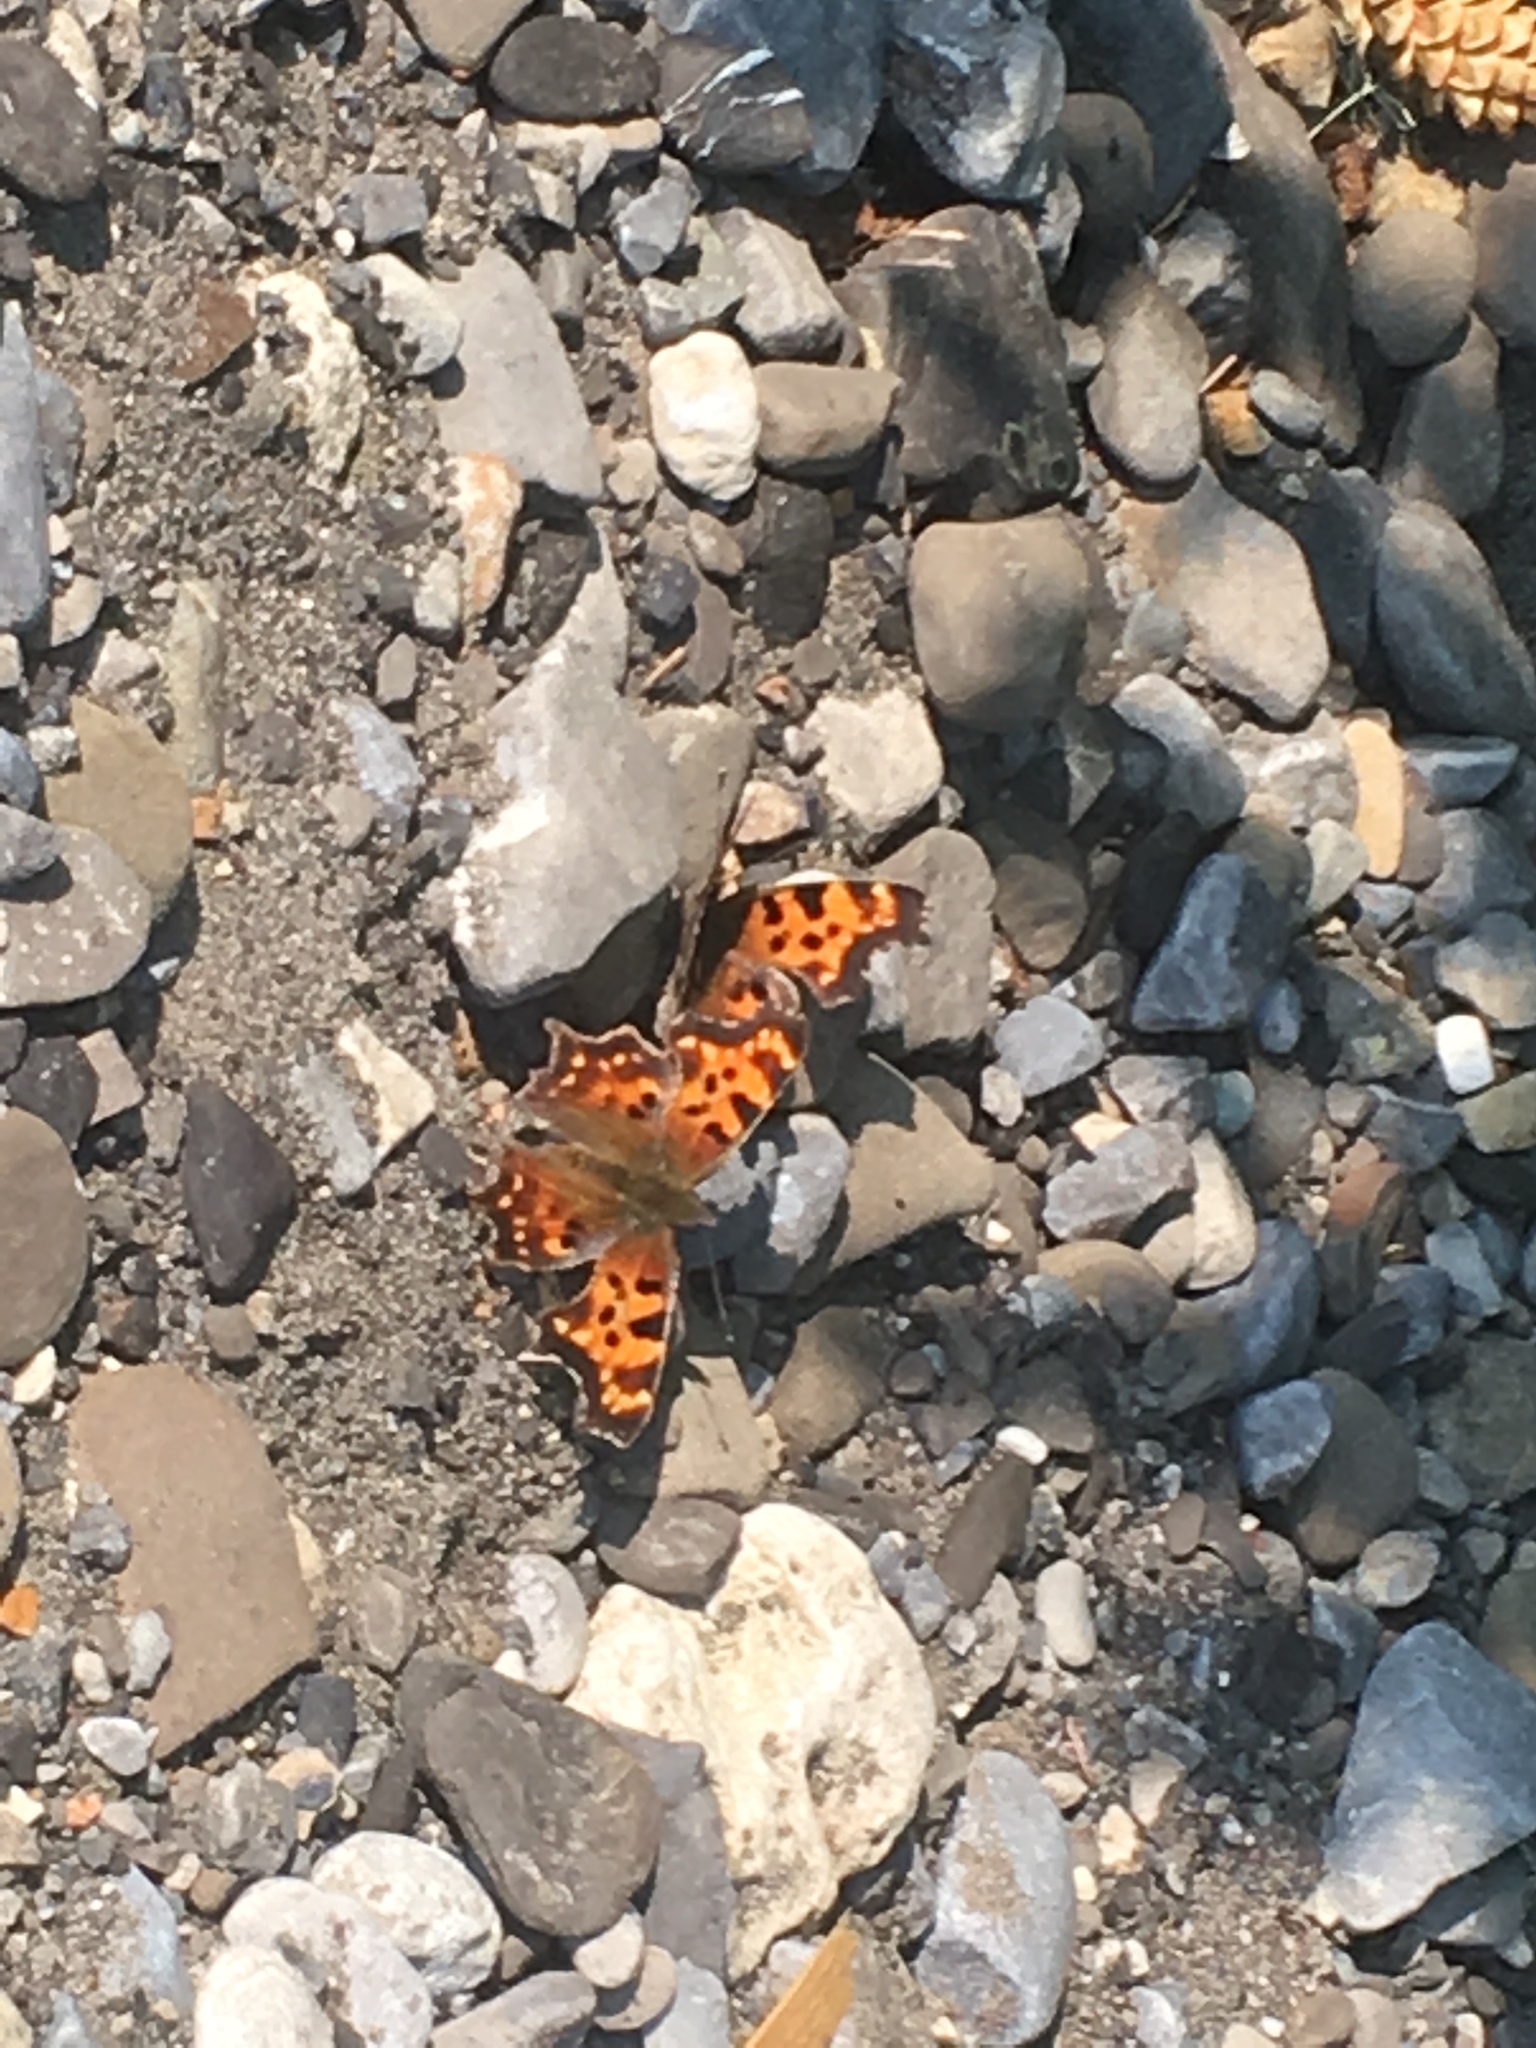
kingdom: Animalia
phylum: Arthropoda
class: Insecta
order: Lepidoptera
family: Nymphalidae
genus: Polygonia
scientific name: Polygonia faunus
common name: Green comma
